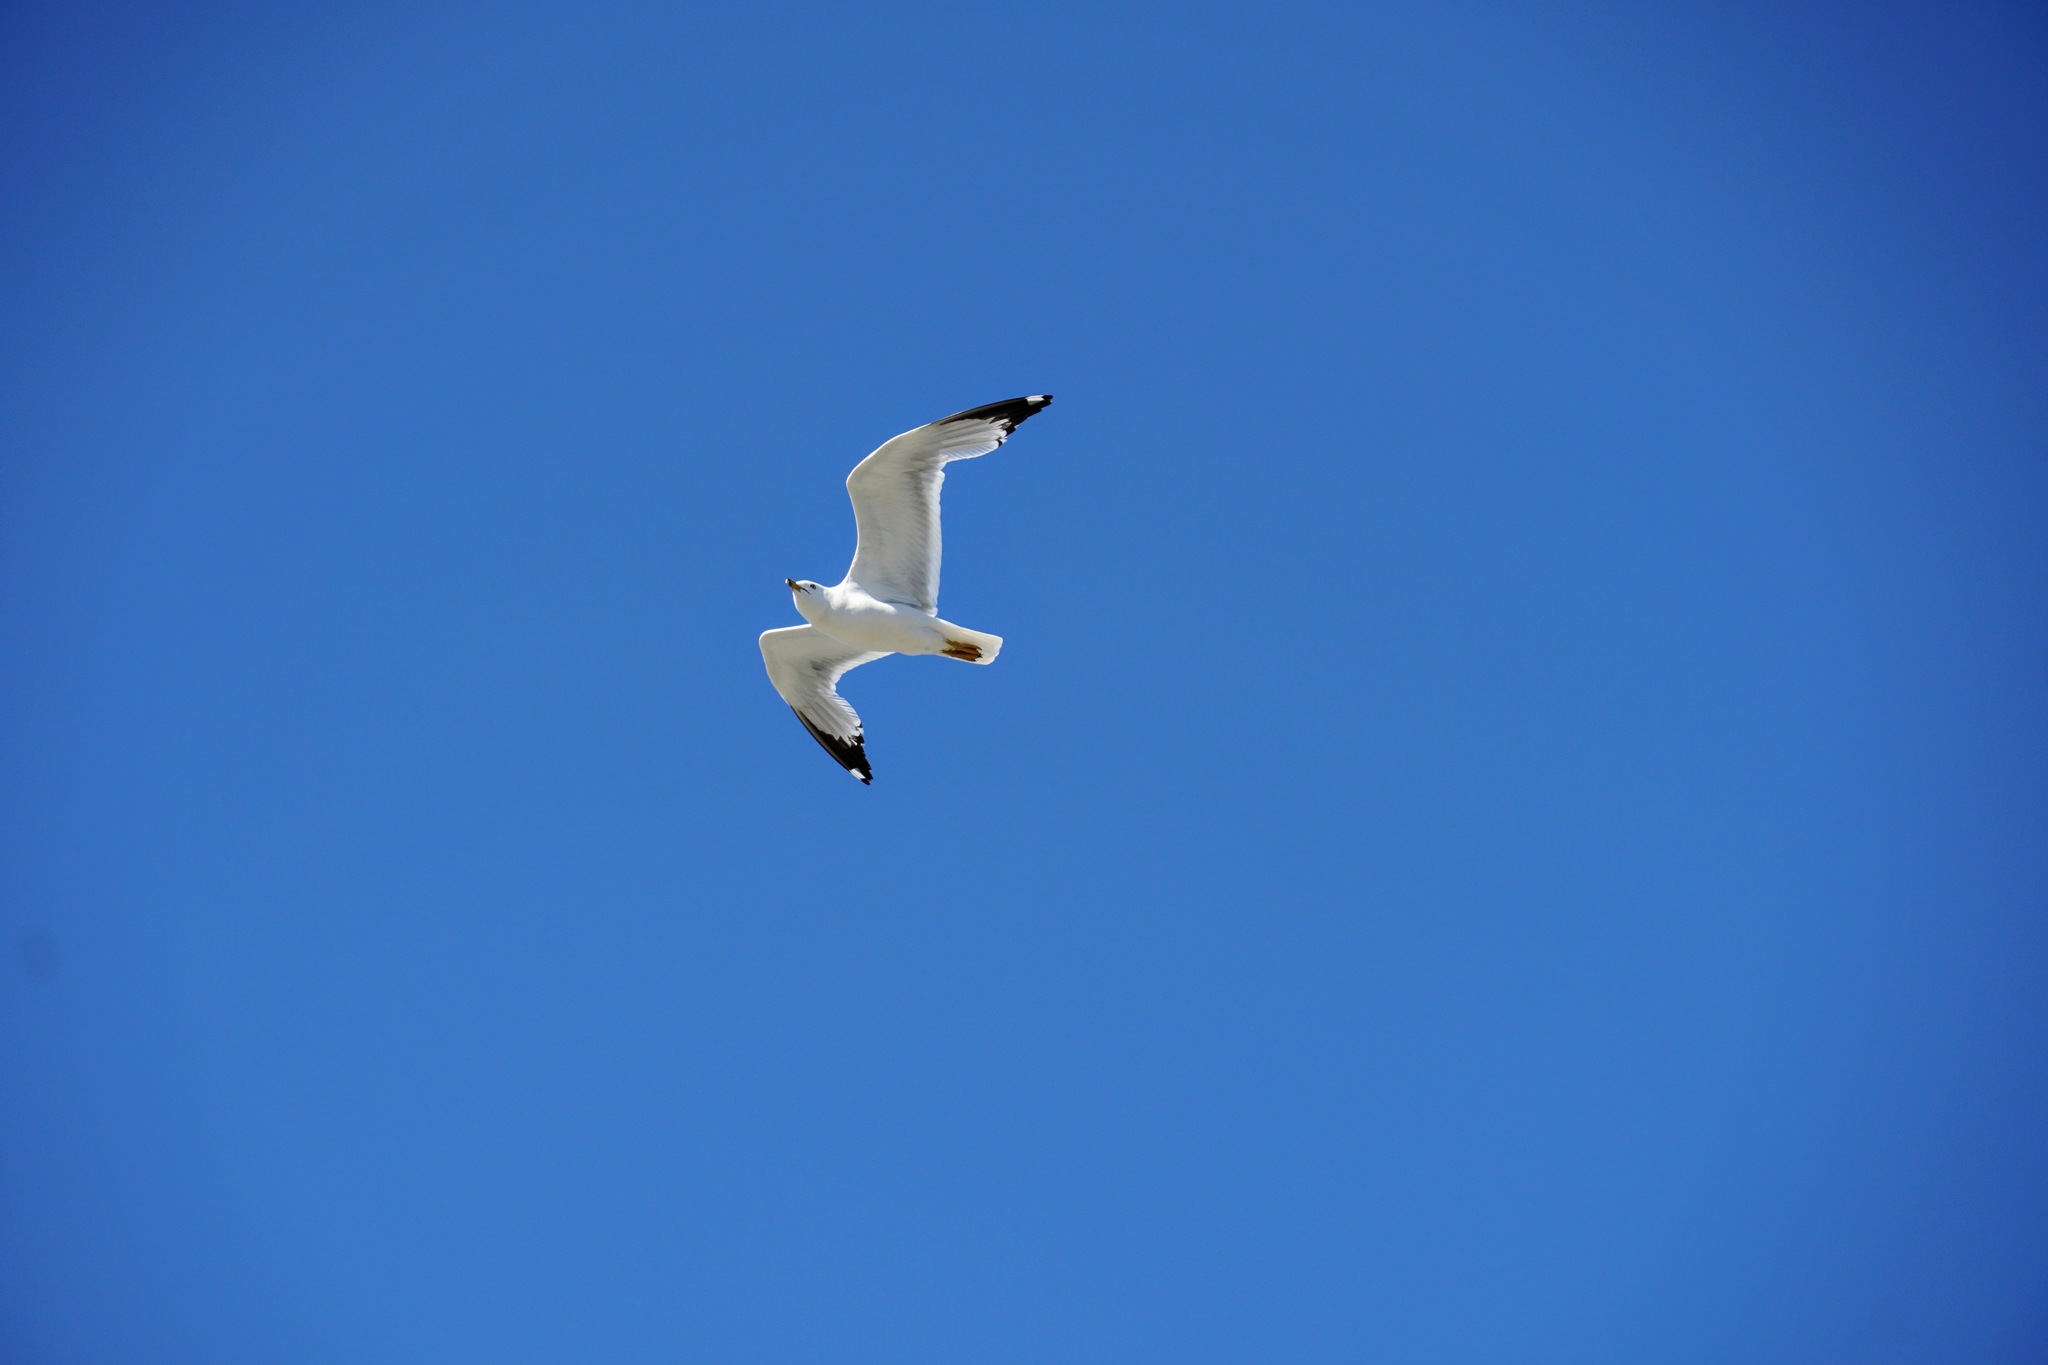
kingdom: Animalia
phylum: Chordata
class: Aves
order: Charadriiformes
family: Laridae
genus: Larus
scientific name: Larus delawarensis
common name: Ring-billed gull
